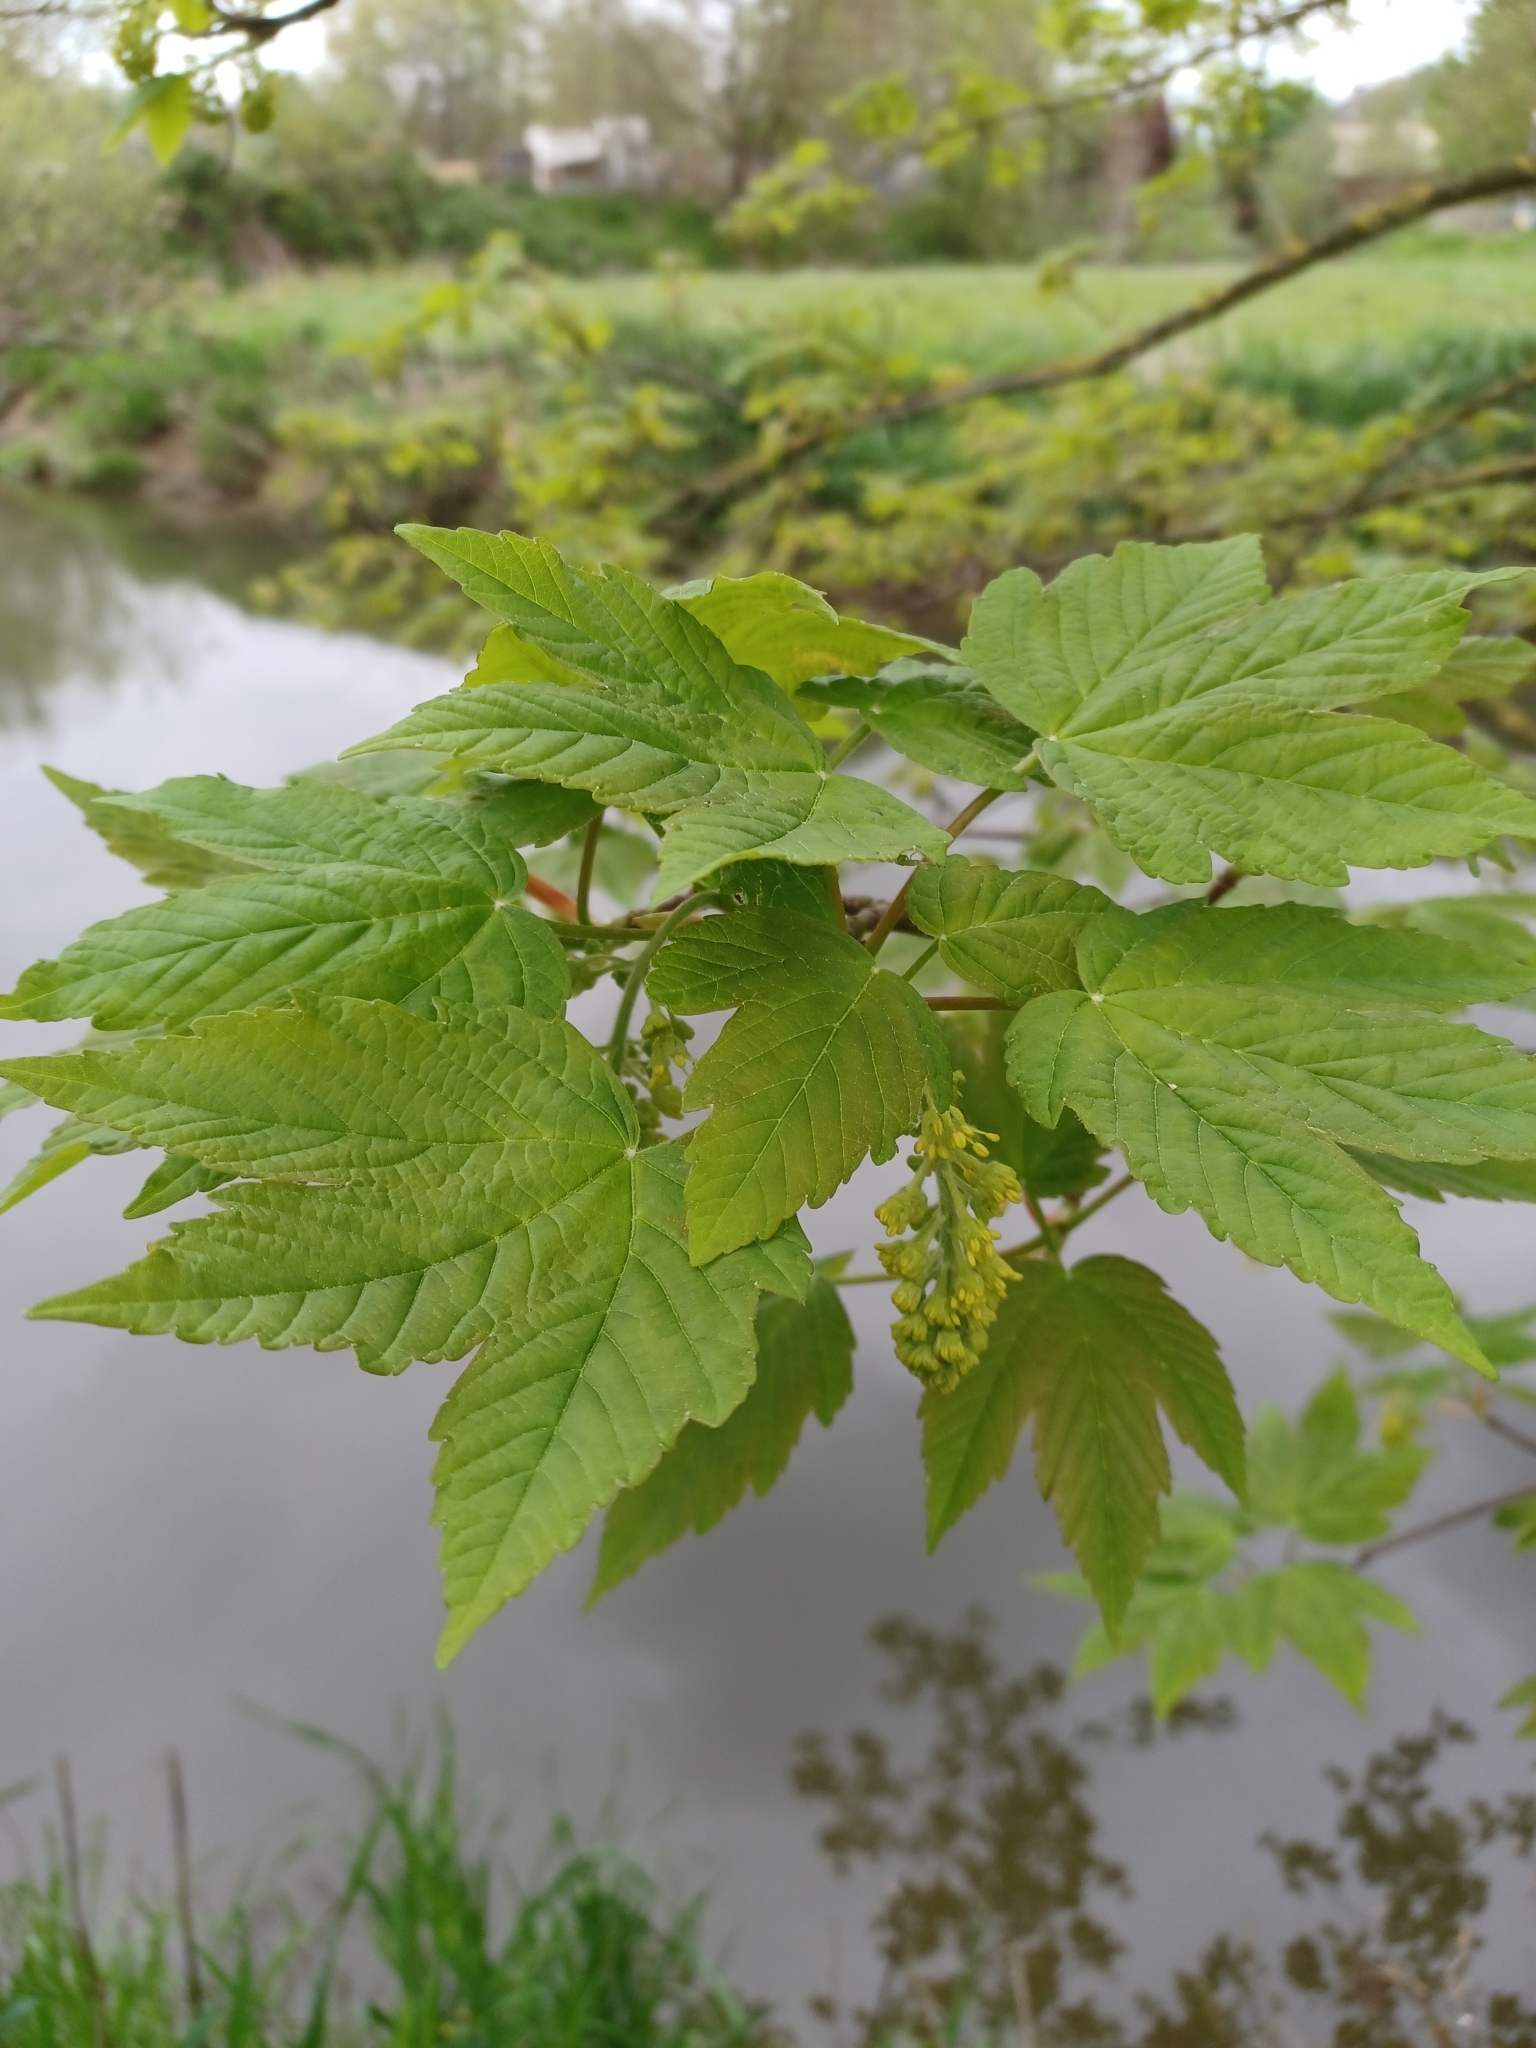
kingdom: Plantae
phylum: Tracheophyta
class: Magnoliopsida
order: Sapindales
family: Sapindaceae
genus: Acer
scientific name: Acer pseudoplatanus
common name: Sycamore
